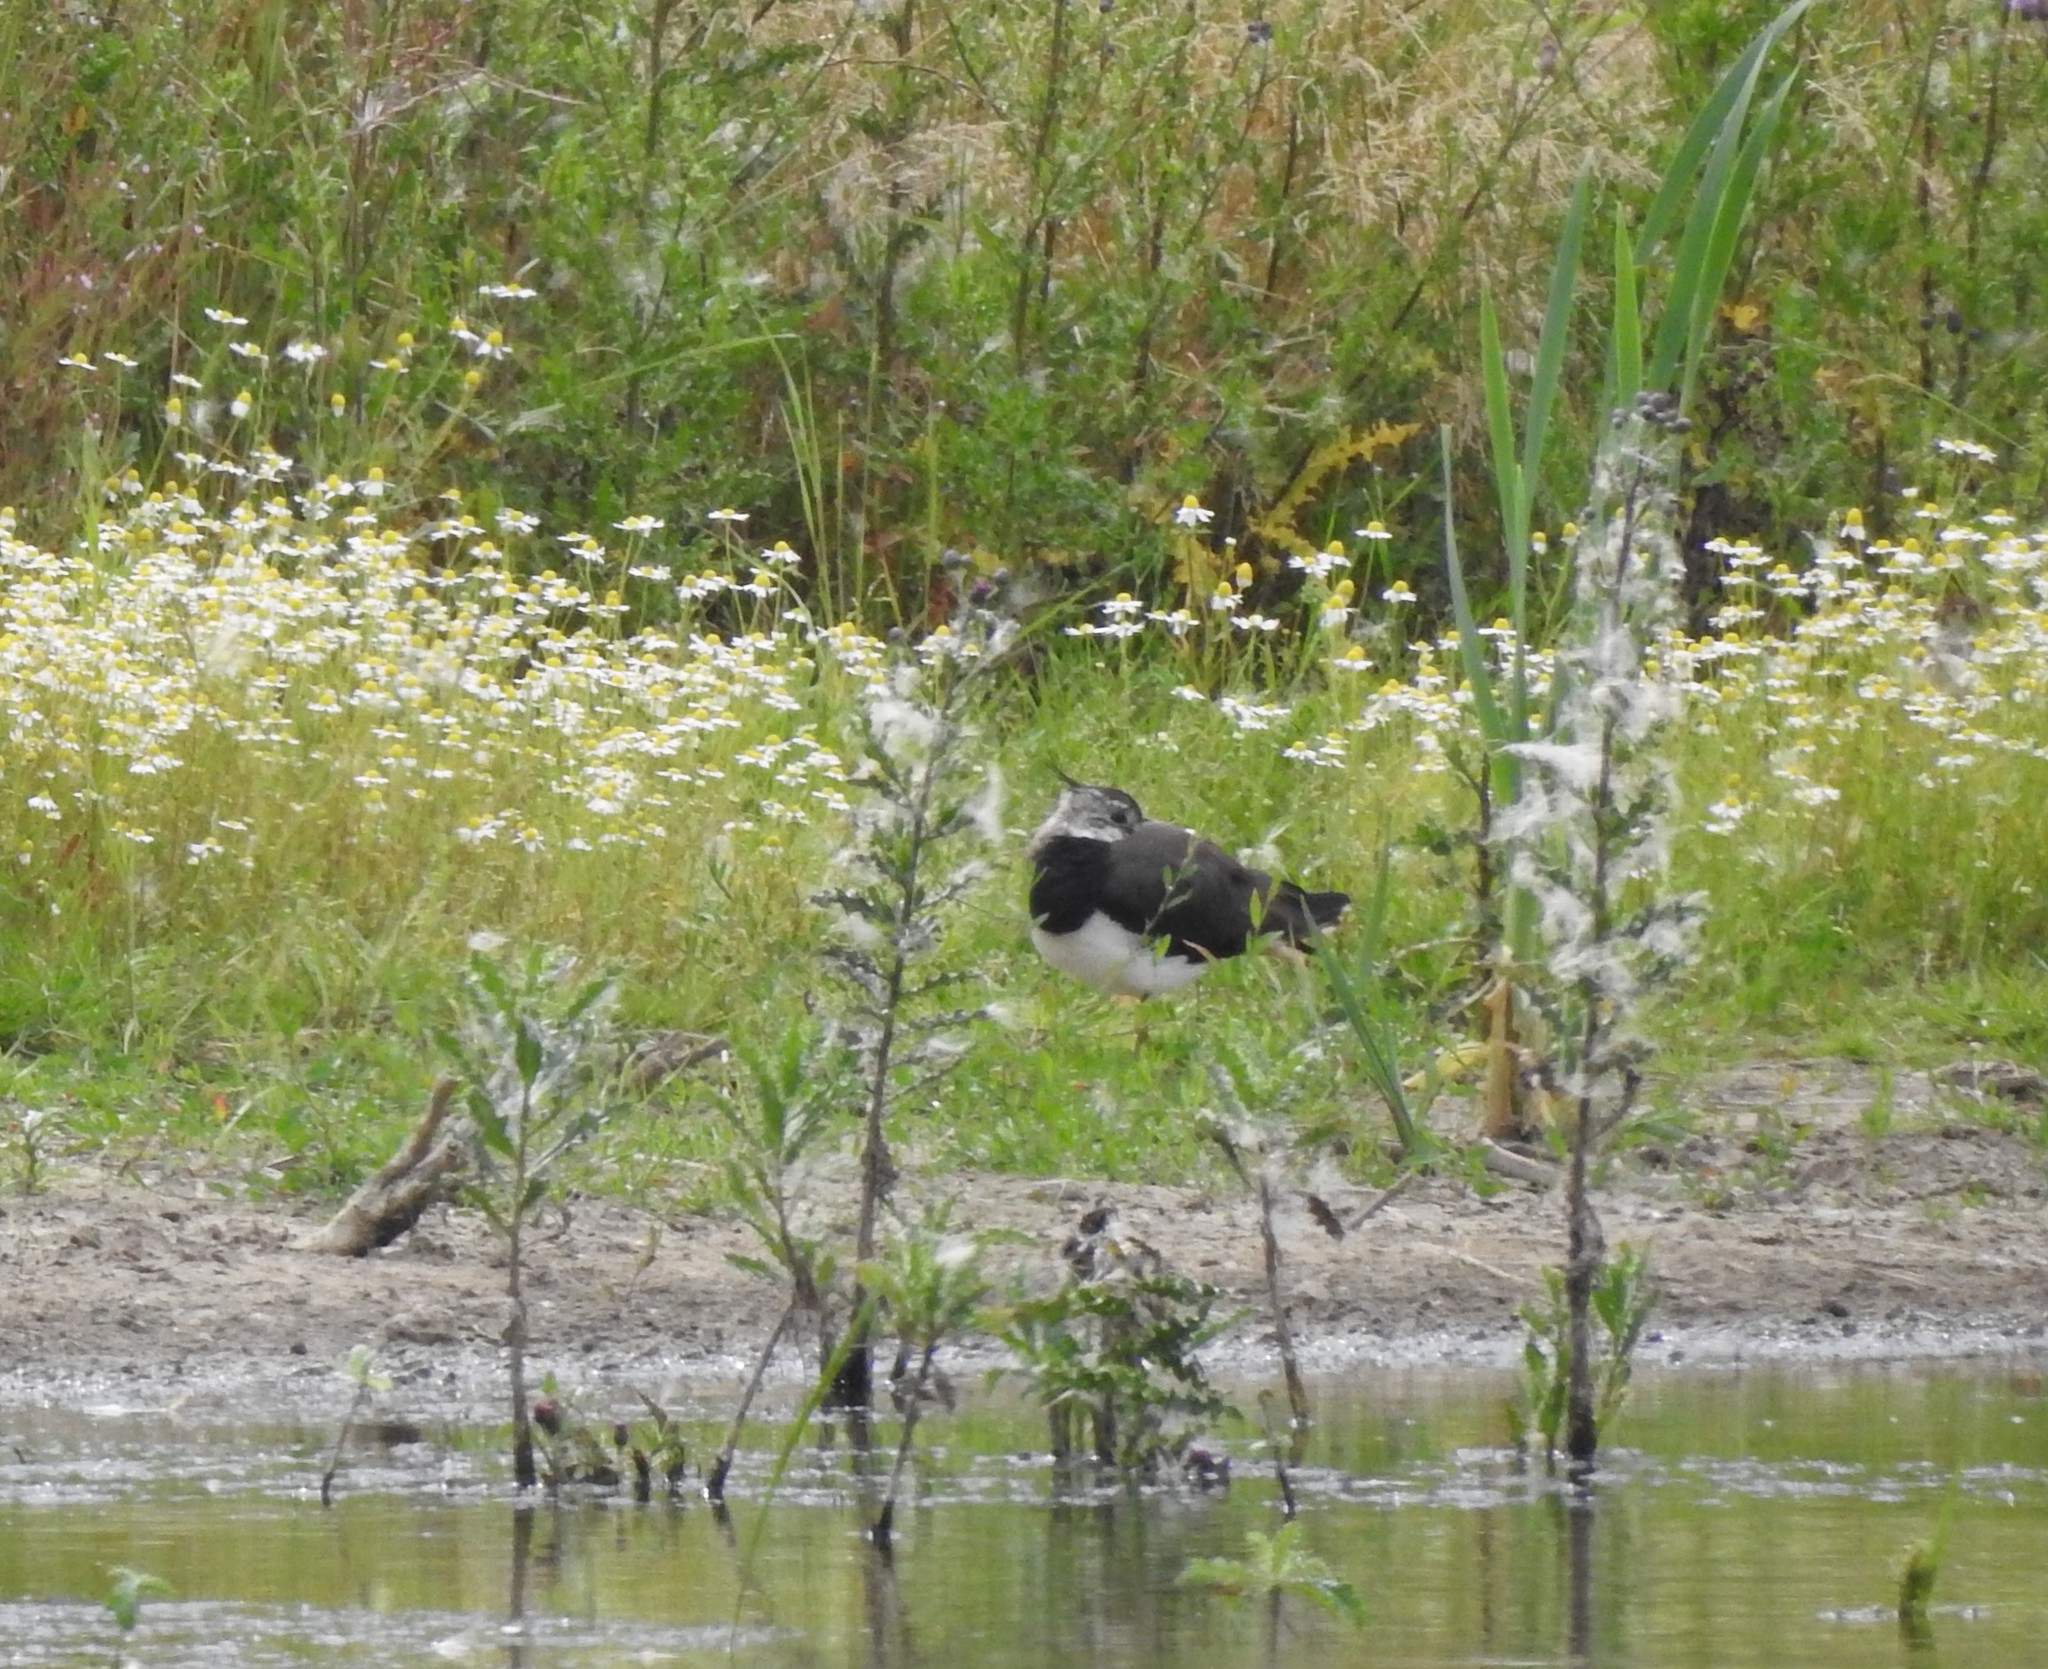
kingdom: Animalia
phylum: Chordata
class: Aves
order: Charadriiformes
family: Charadriidae
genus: Vanellus
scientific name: Vanellus vanellus
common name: Northern lapwing
